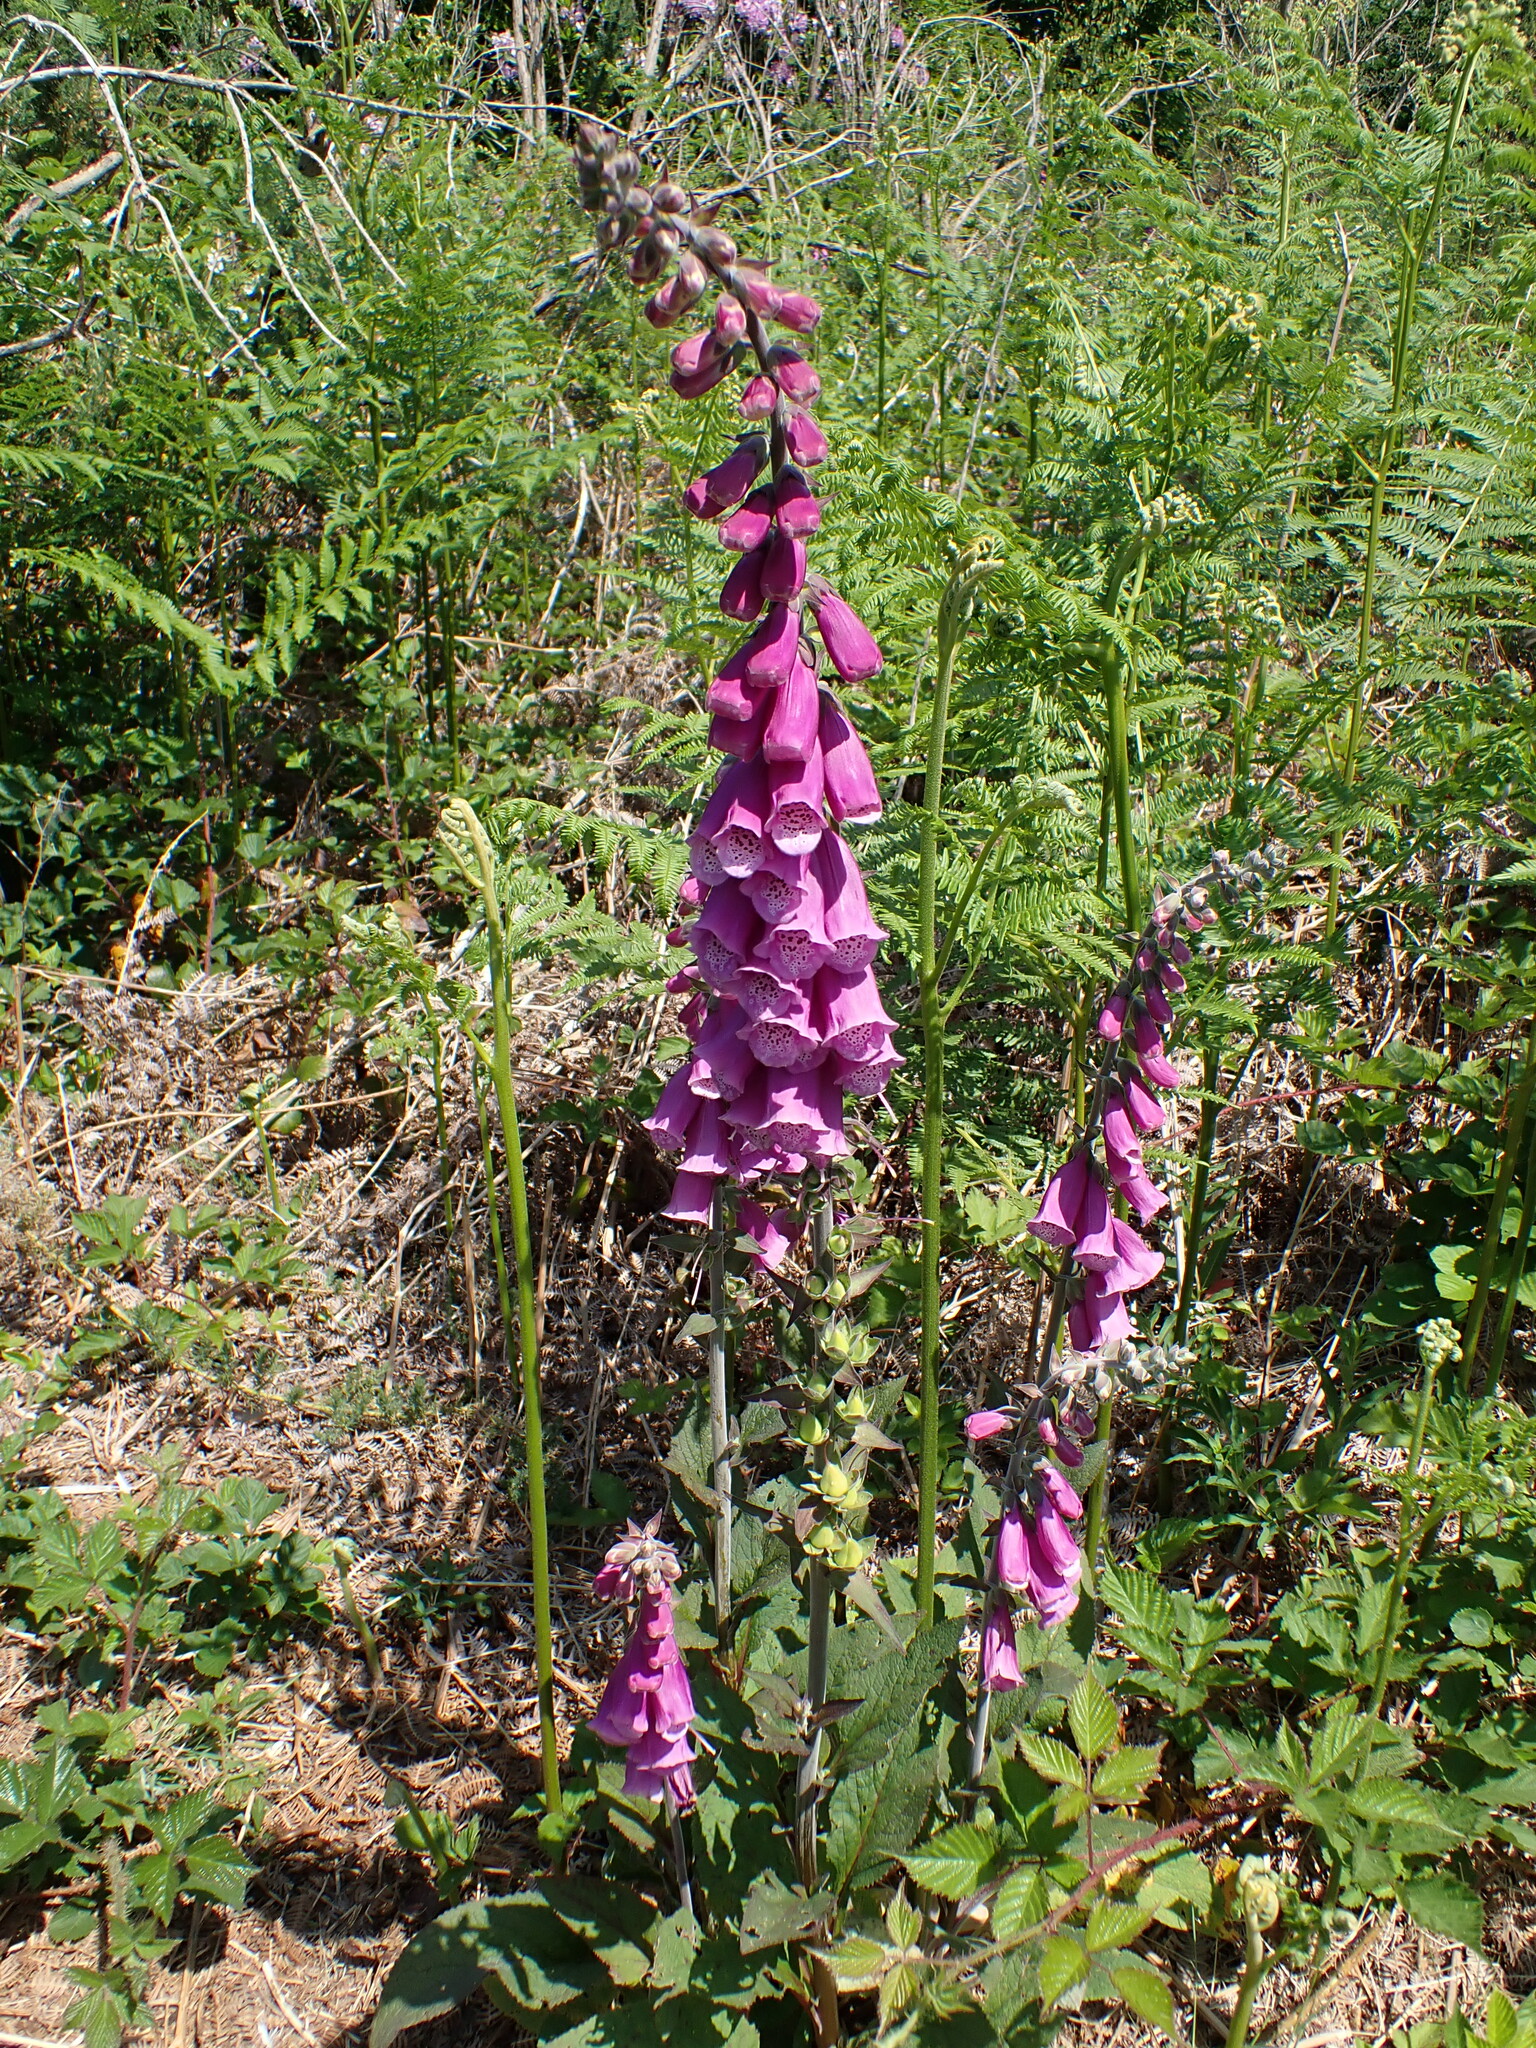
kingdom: Plantae
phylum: Tracheophyta
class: Magnoliopsida
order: Lamiales
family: Plantaginaceae
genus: Digitalis
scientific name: Digitalis purpurea
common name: Foxglove
